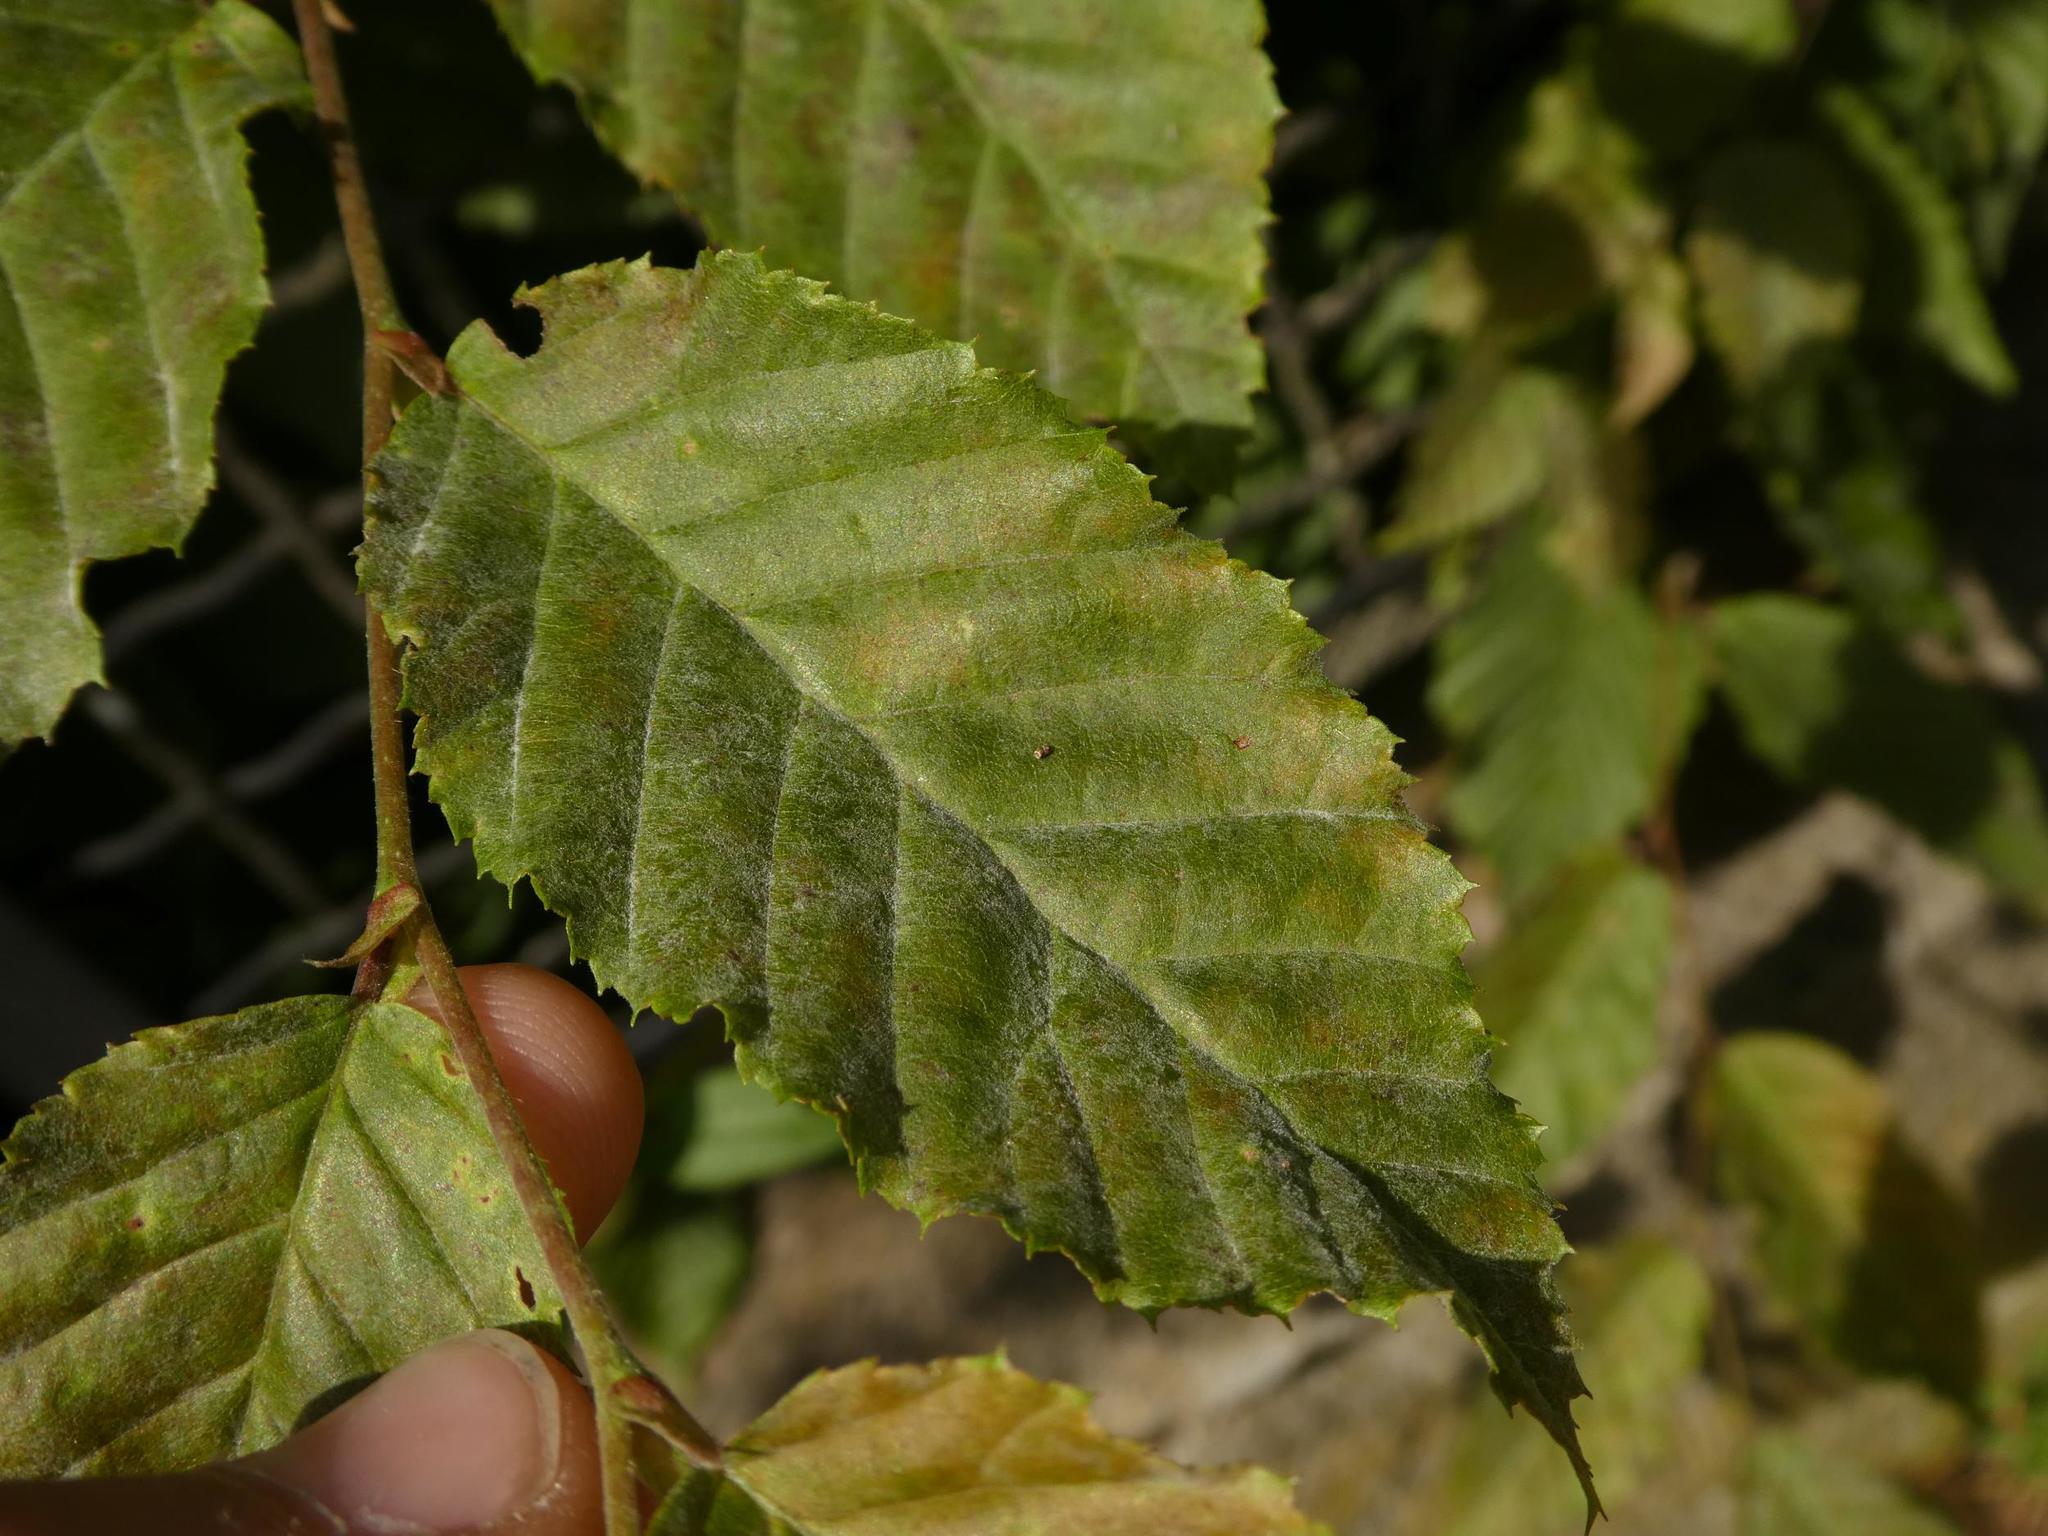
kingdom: Fungi
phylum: Ascomycota
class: Leotiomycetes
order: Helotiales
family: Erysiphaceae
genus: Erysiphe
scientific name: Erysiphe arcuata
